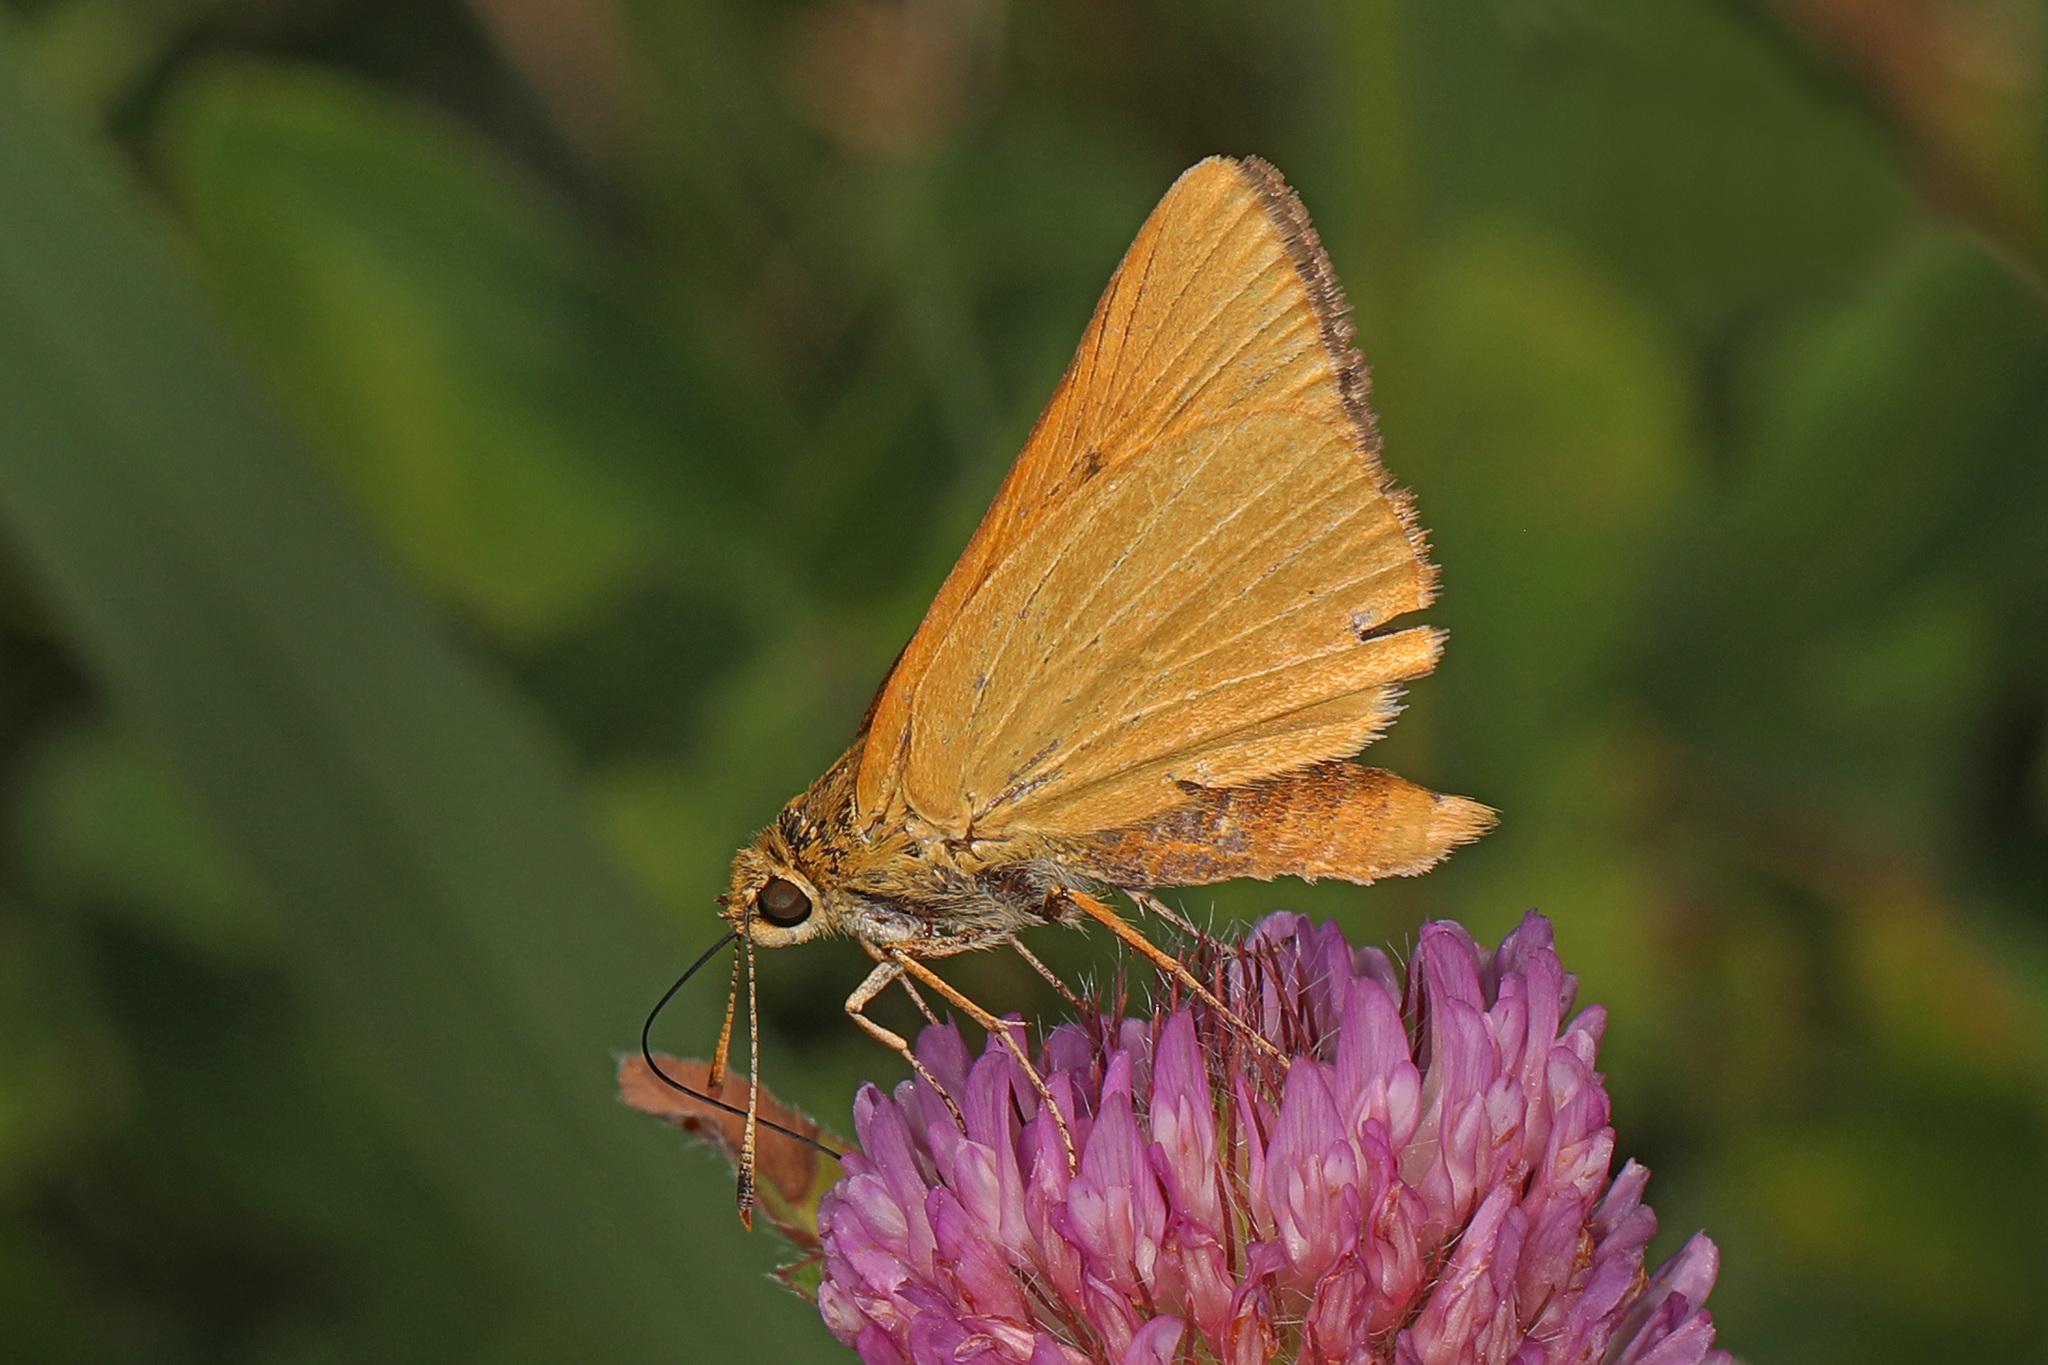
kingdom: Animalia
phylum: Arthropoda
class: Insecta
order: Lepidoptera
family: Hesperiidae
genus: Problema
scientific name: Problema bulenta
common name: Rare skipper
